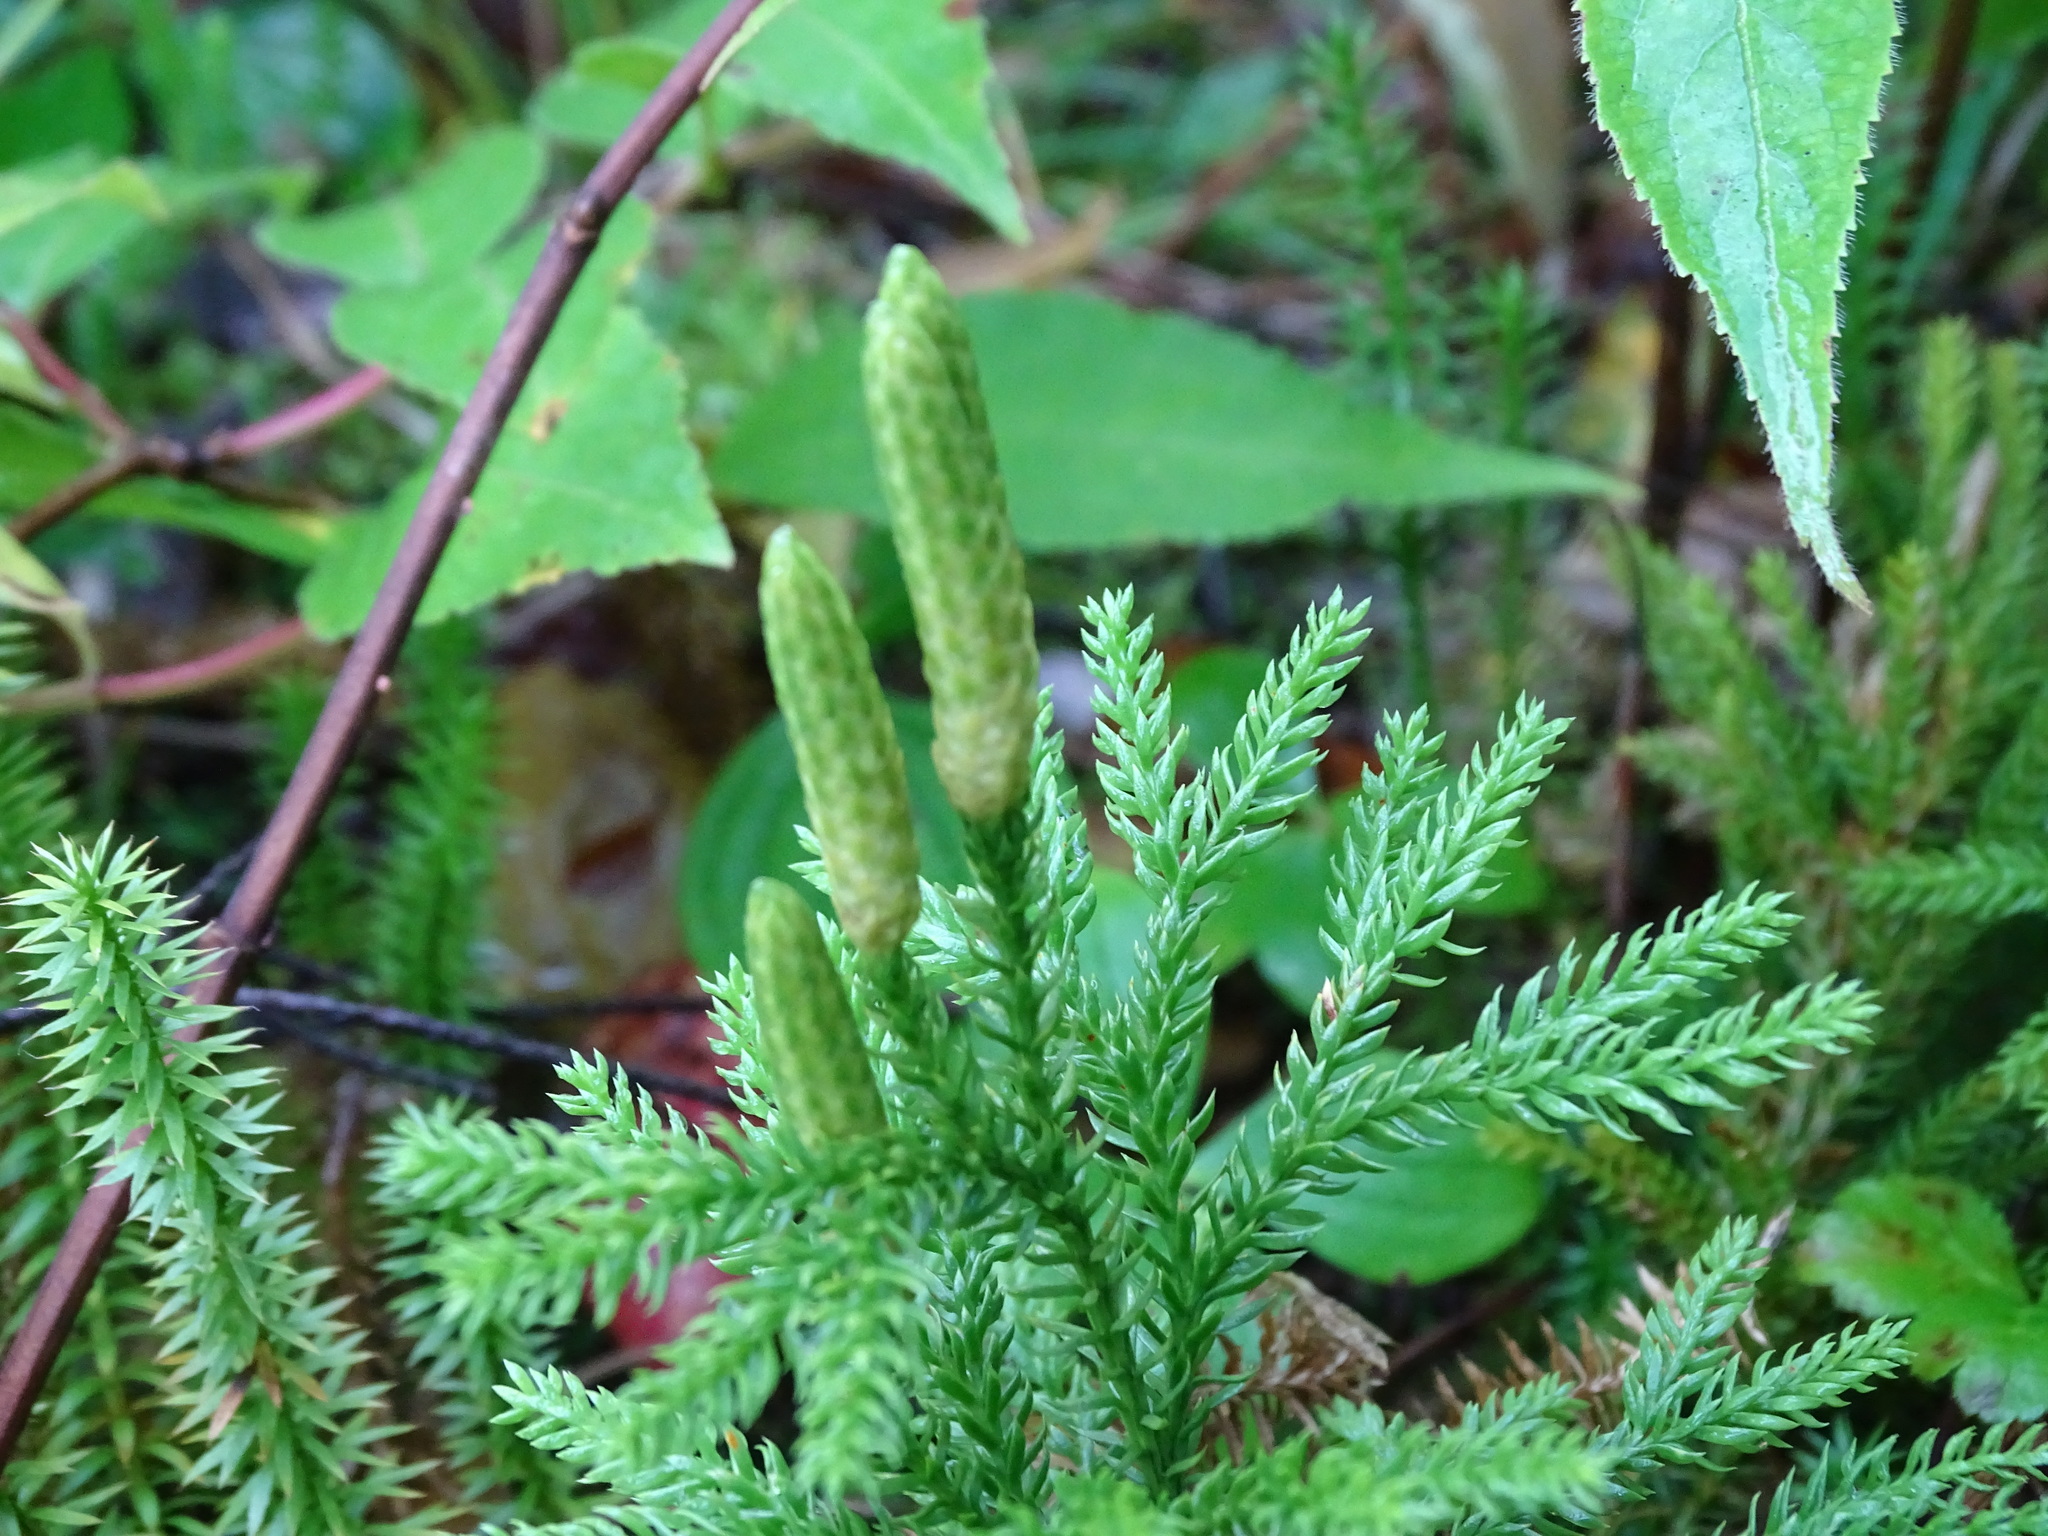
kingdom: Plantae
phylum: Tracheophyta
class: Lycopodiopsida
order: Lycopodiales
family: Lycopodiaceae
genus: Dendrolycopodium
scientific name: Dendrolycopodium dendroideum
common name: Northern tree-clubmoss
